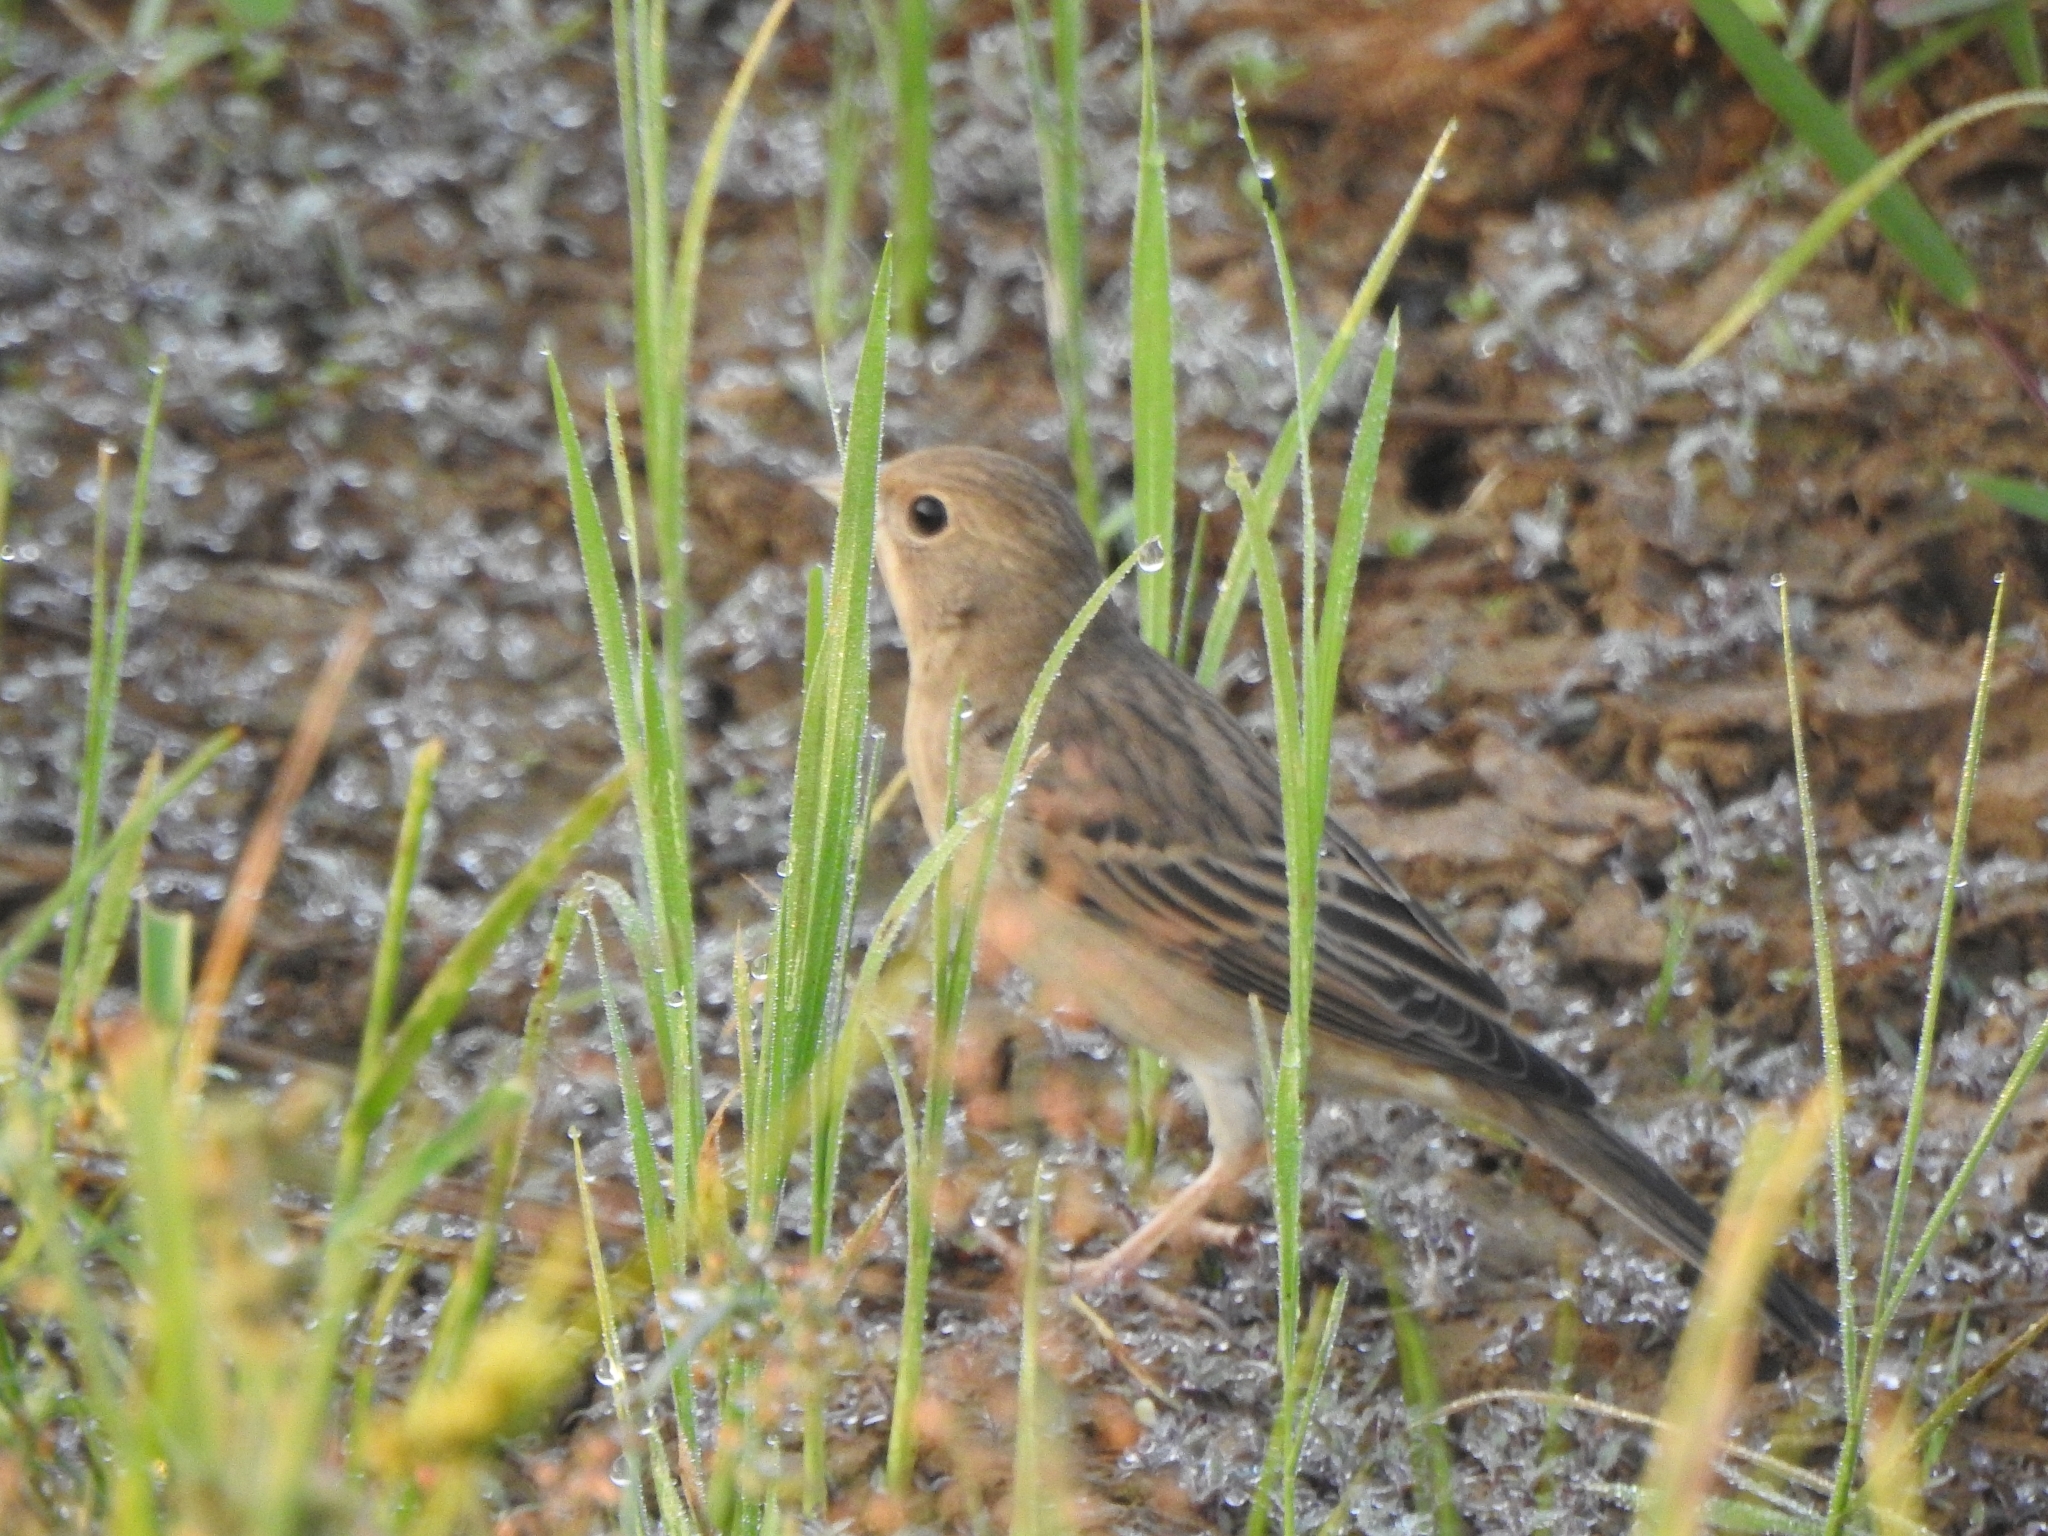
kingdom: Animalia
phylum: Chordata
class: Aves
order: Passeriformes
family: Emberizidae
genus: Emberiza
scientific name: Emberiza bruniceps
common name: Red-headed bunting
